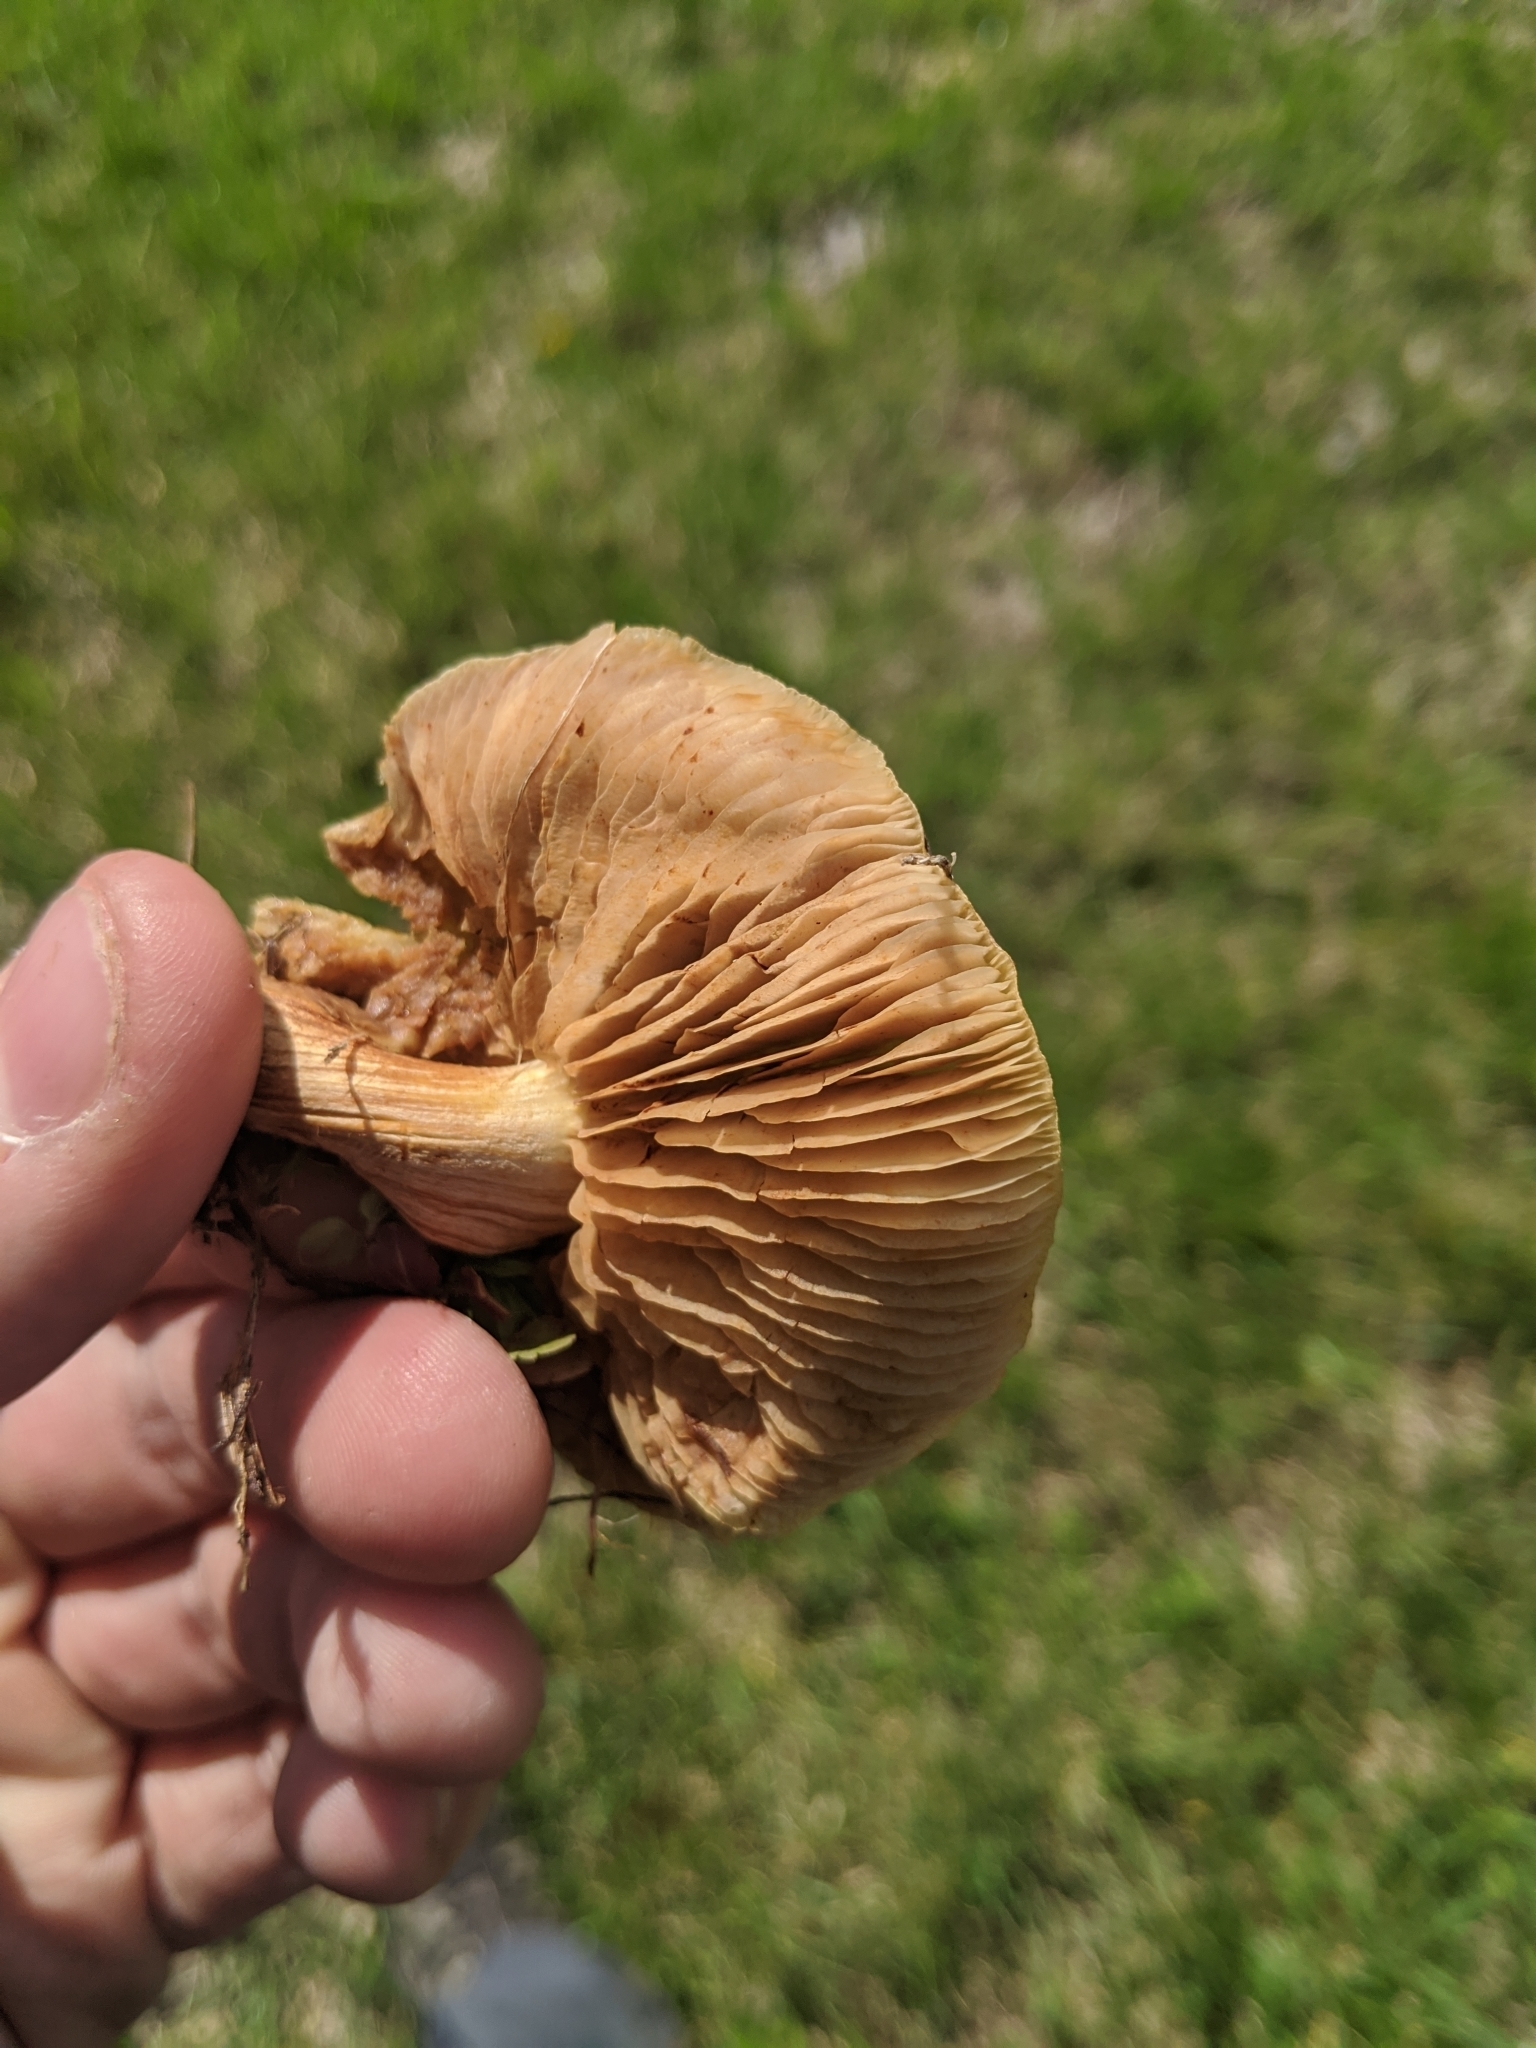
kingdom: Fungi
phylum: Basidiomycota
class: Agaricomycetes
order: Agaricales
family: Marasmiaceae
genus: Marasmius
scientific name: Marasmius oreades
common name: Fairy ring champignon
